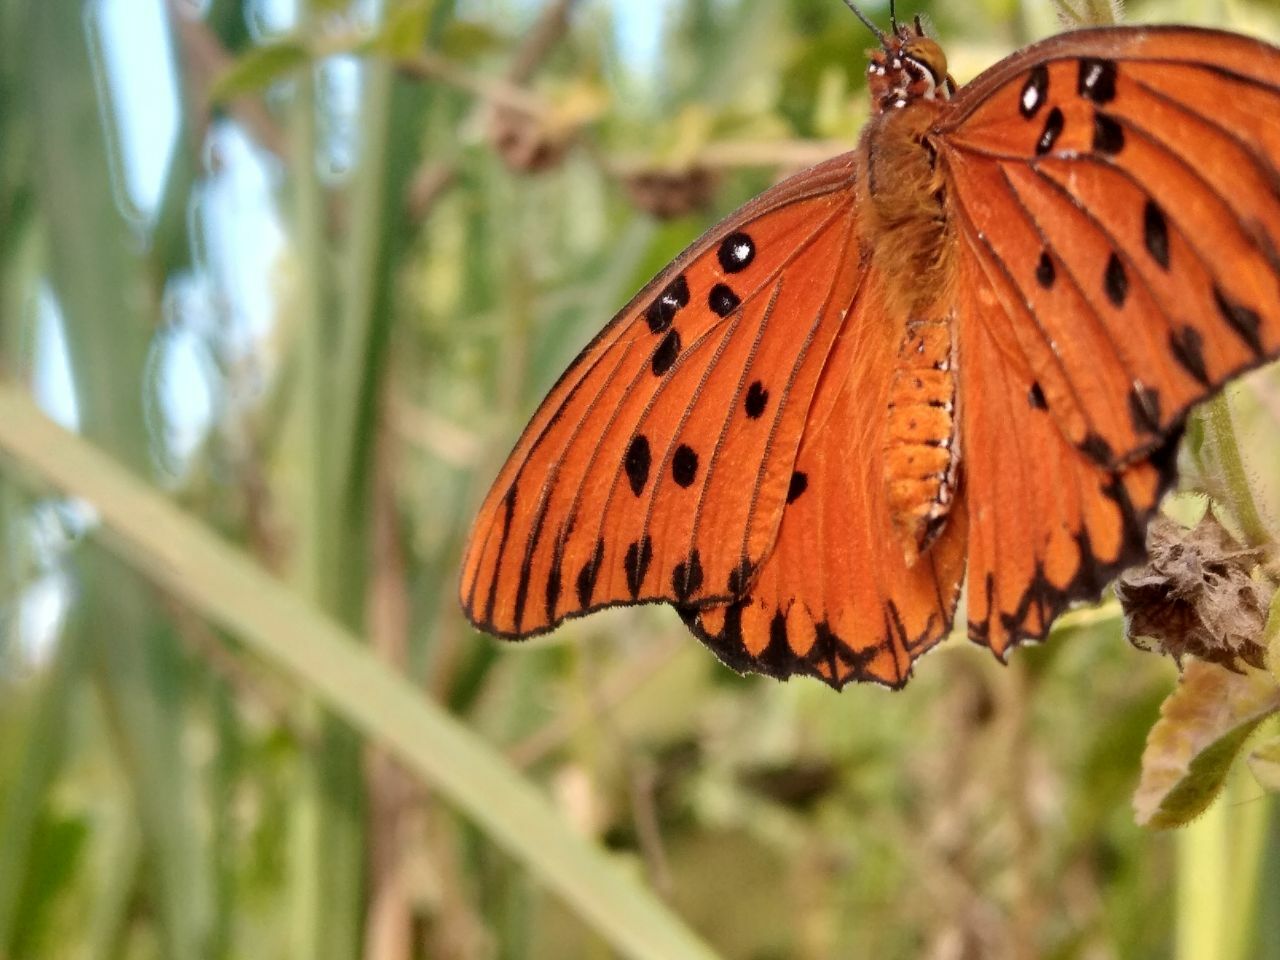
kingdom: Animalia
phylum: Arthropoda
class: Insecta
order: Lepidoptera
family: Nymphalidae
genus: Dione
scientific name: Dione vanillae
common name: Gulf fritillary
